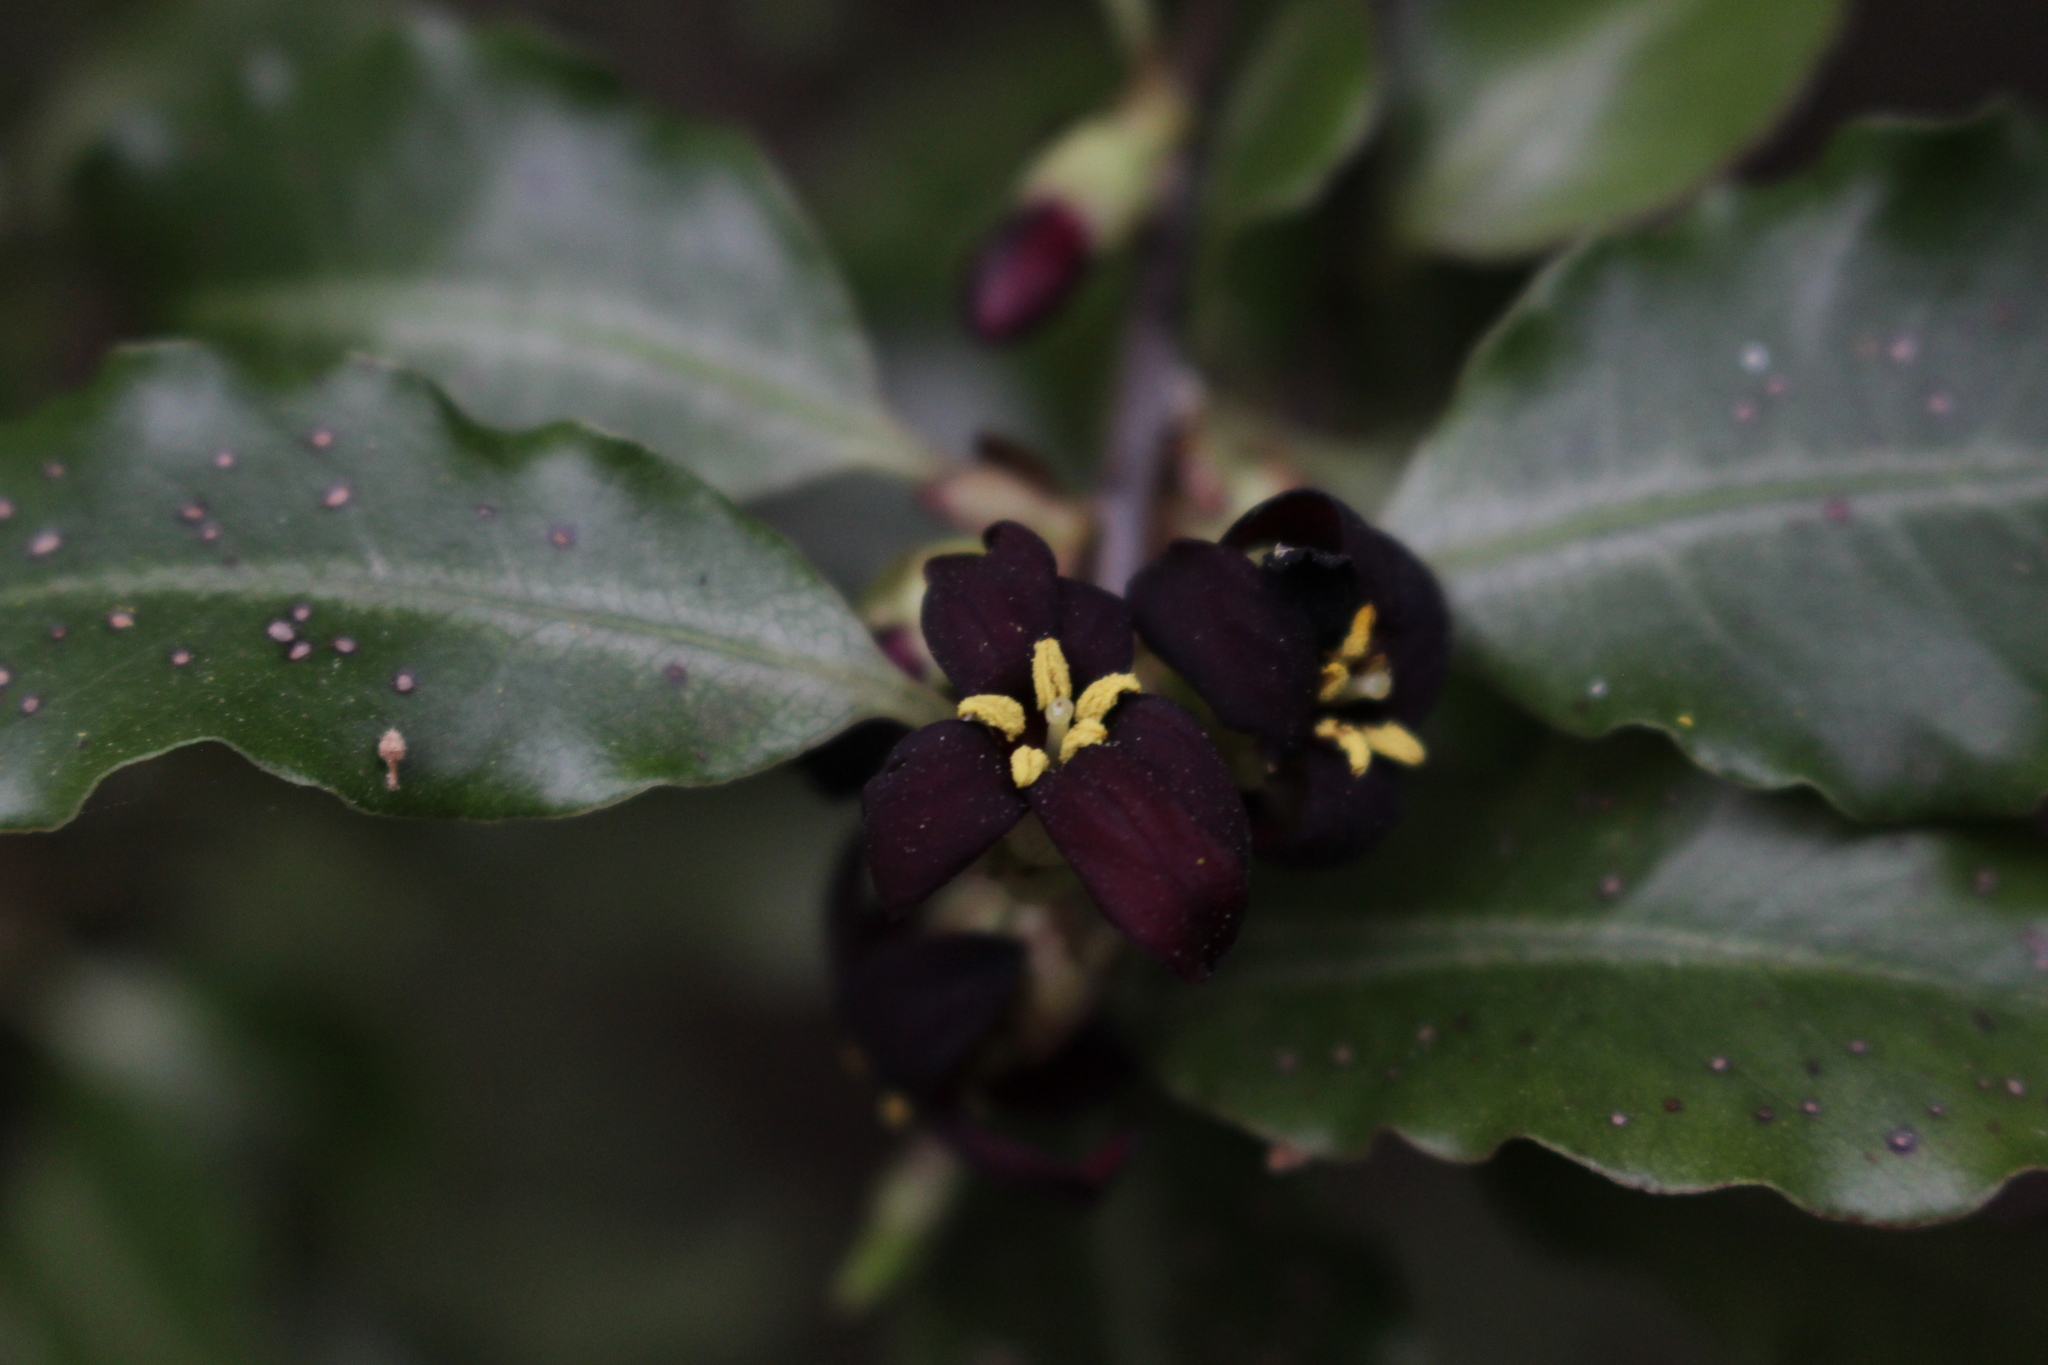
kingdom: Plantae
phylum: Tracheophyta
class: Magnoliopsida
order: Apiales
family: Pittosporaceae
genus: Pittosporum
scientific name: Pittosporum tenuifolium
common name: Kohuhu
